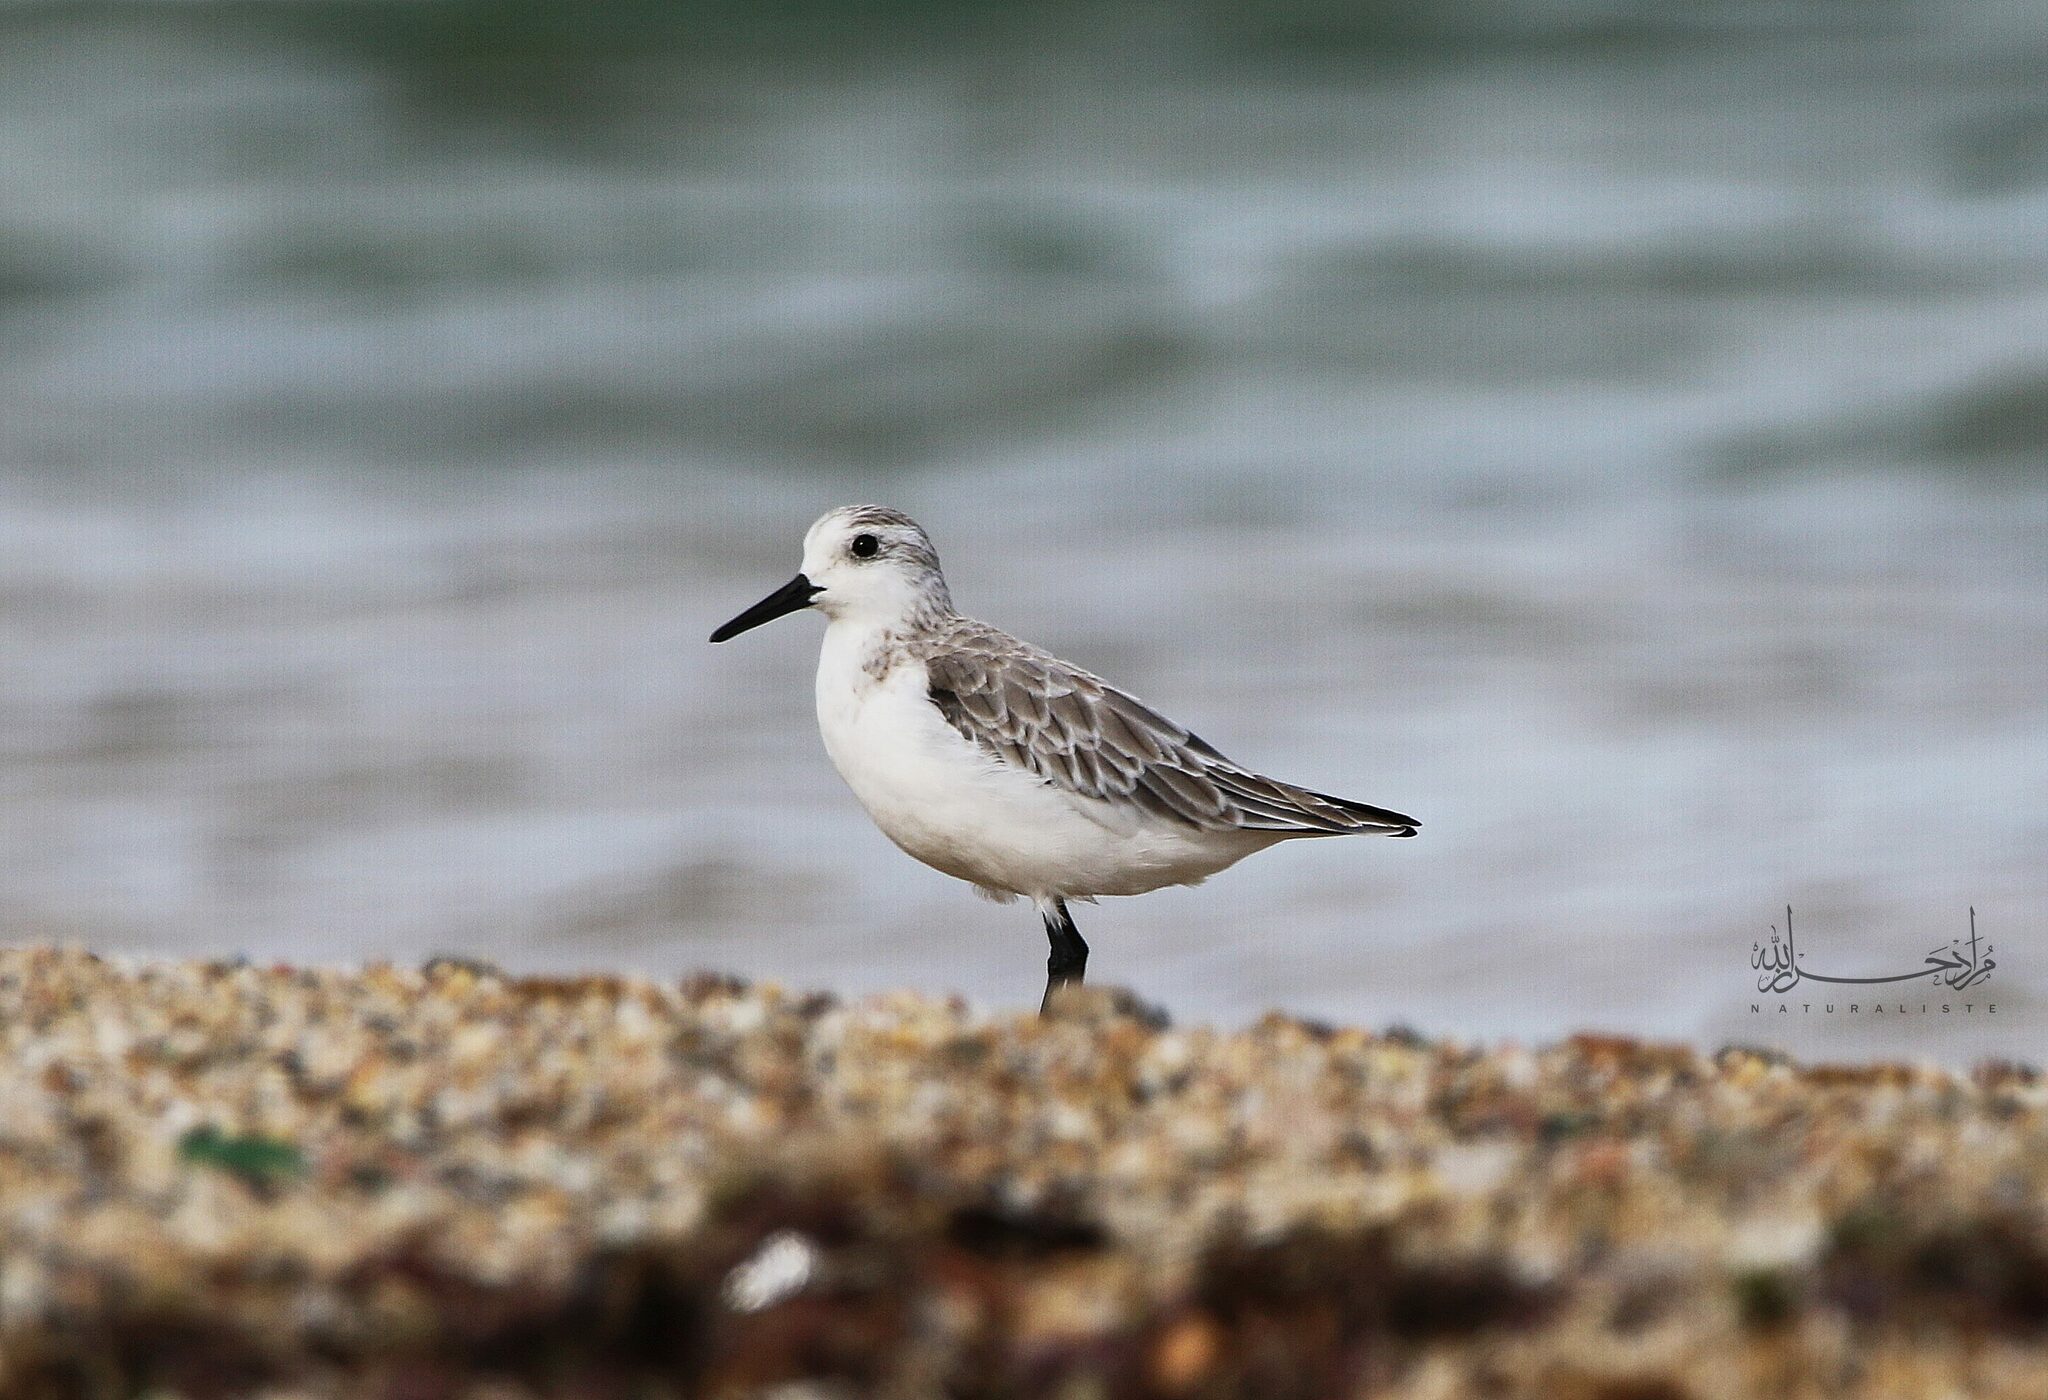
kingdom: Animalia
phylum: Chordata
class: Aves
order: Charadriiformes
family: Scolopacidae
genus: Calidris
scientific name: Calidris alba
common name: Sanderling
